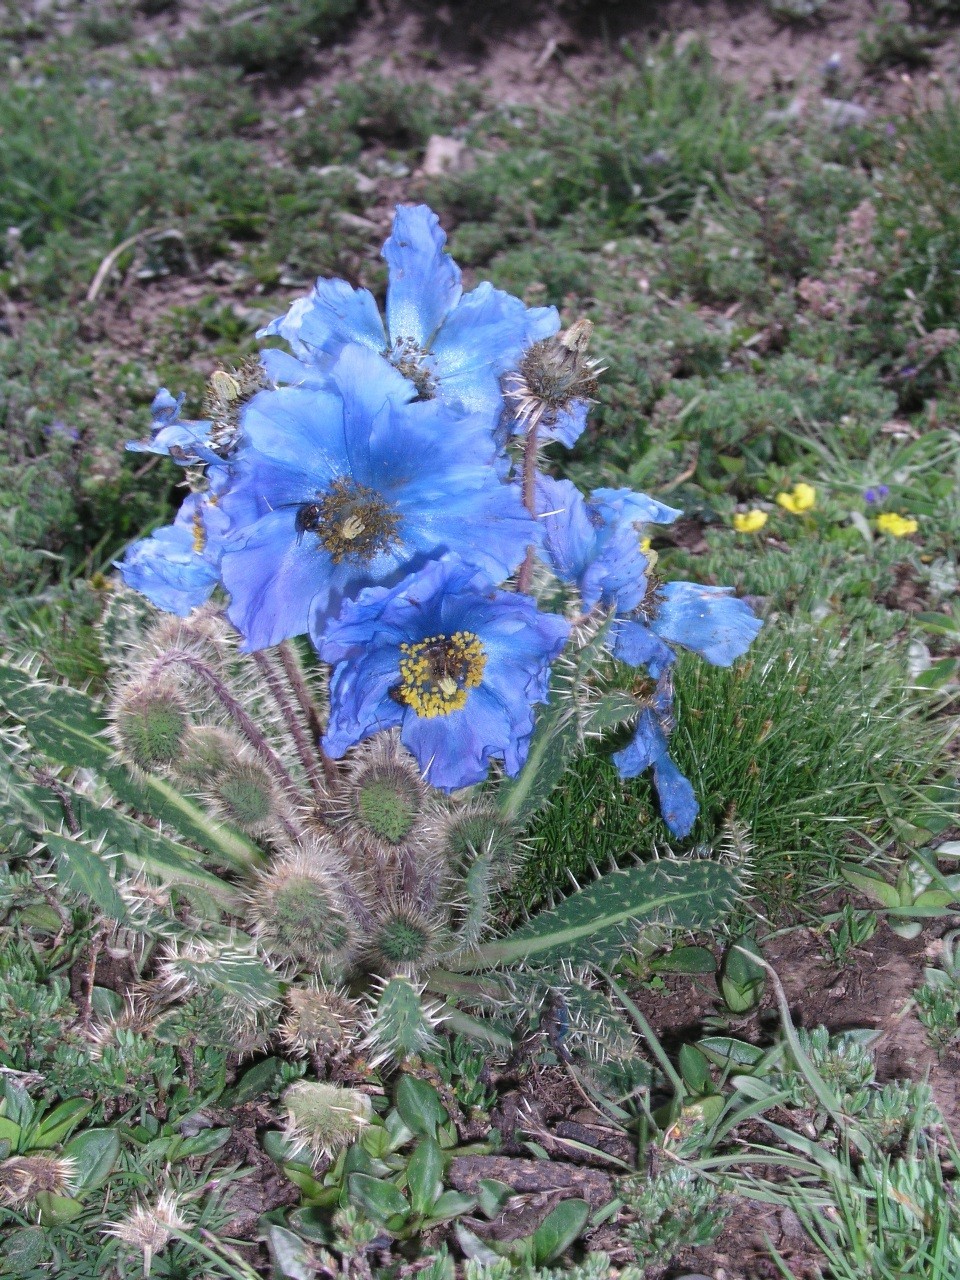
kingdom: Plantae
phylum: Tracheophyta
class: Magnoliopsida
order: Ranunculales
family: Papaveraceae
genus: Meconopsis
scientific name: Meconopsis horridula
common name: Prickly blue-poppy
